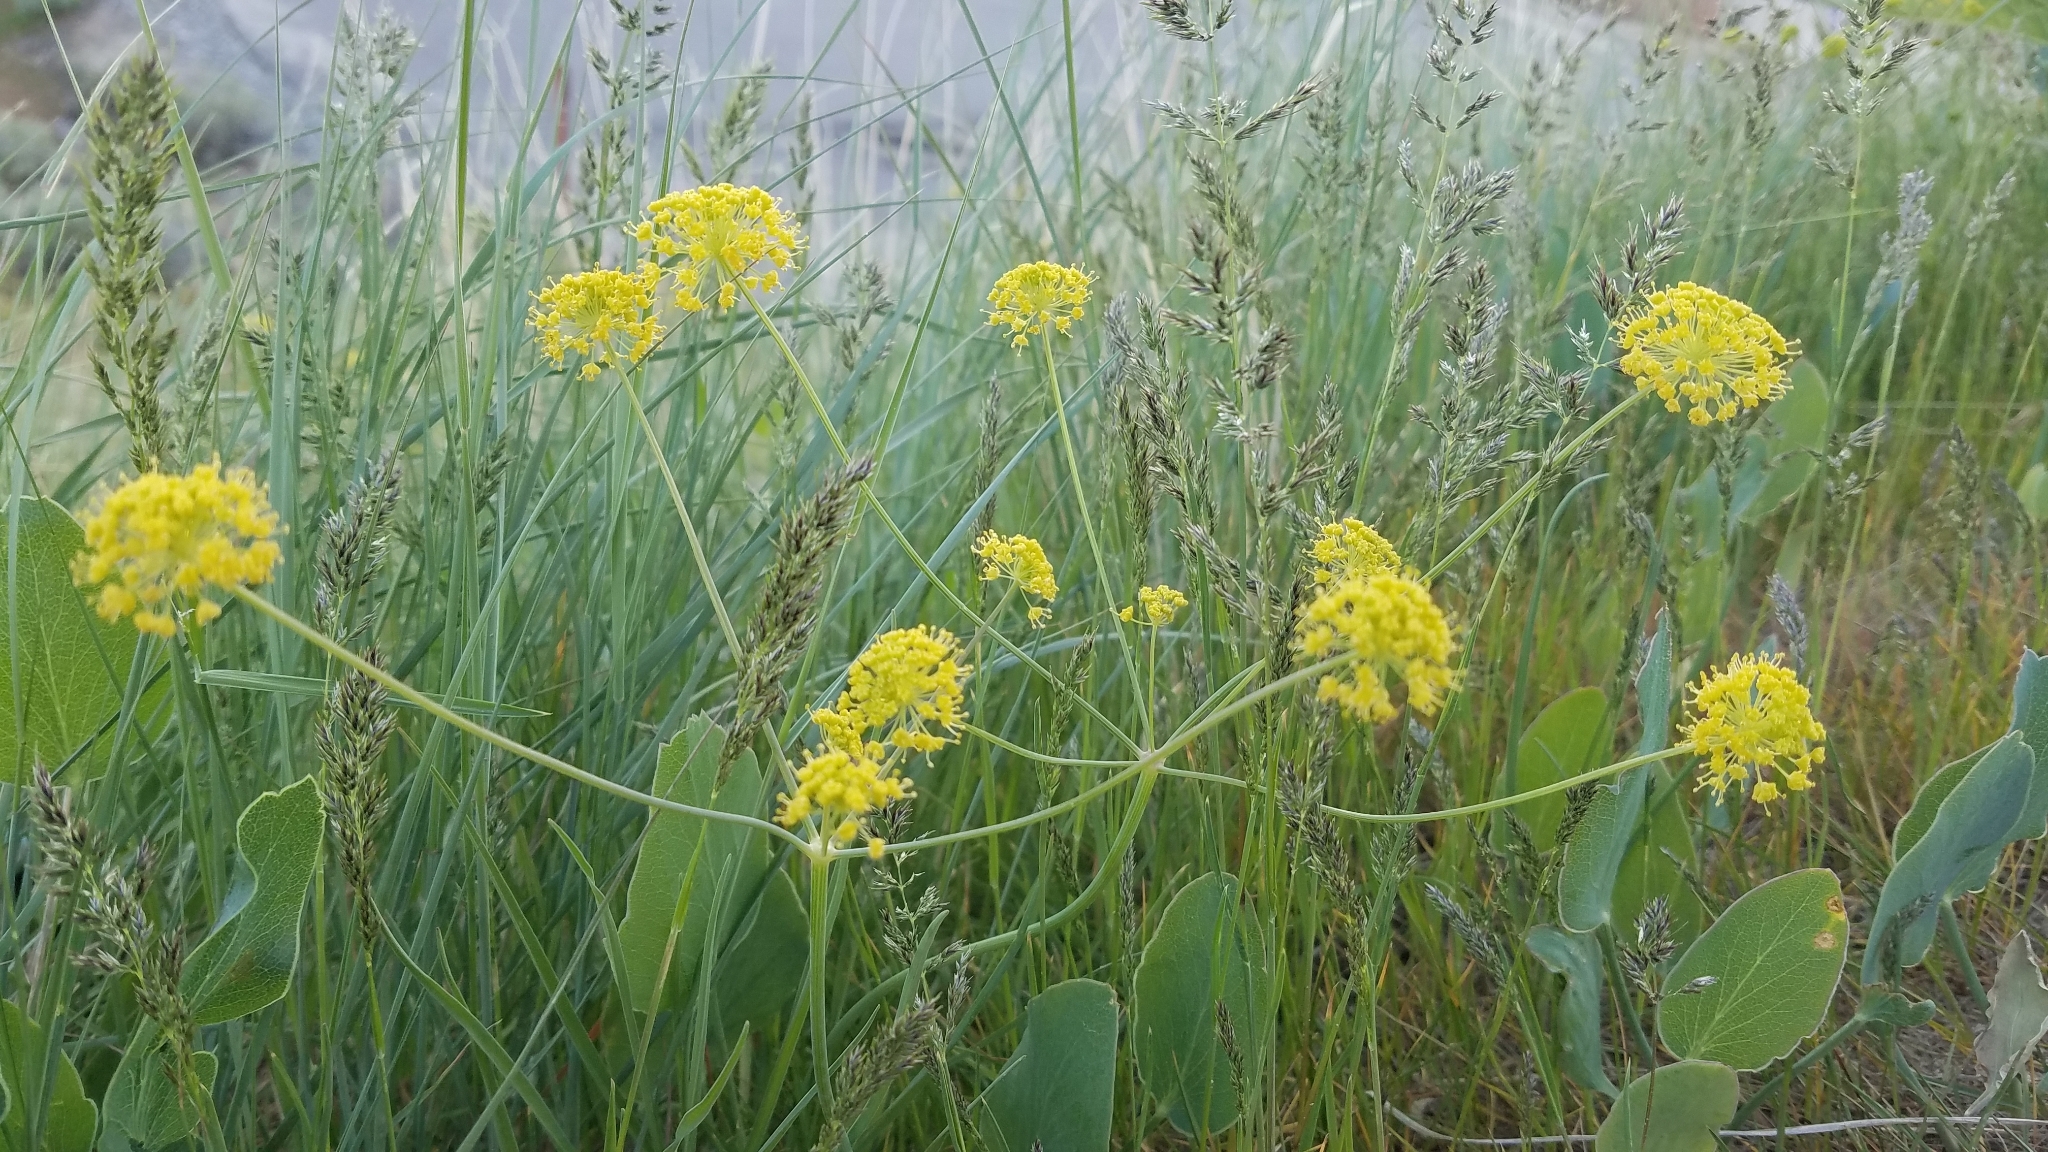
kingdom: Plantae
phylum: Tracheophyta
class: Magnoliopsida
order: Apiales
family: Apiaceae
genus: Lomatium
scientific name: Lomatium nudicaule
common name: Pestle lomatium
